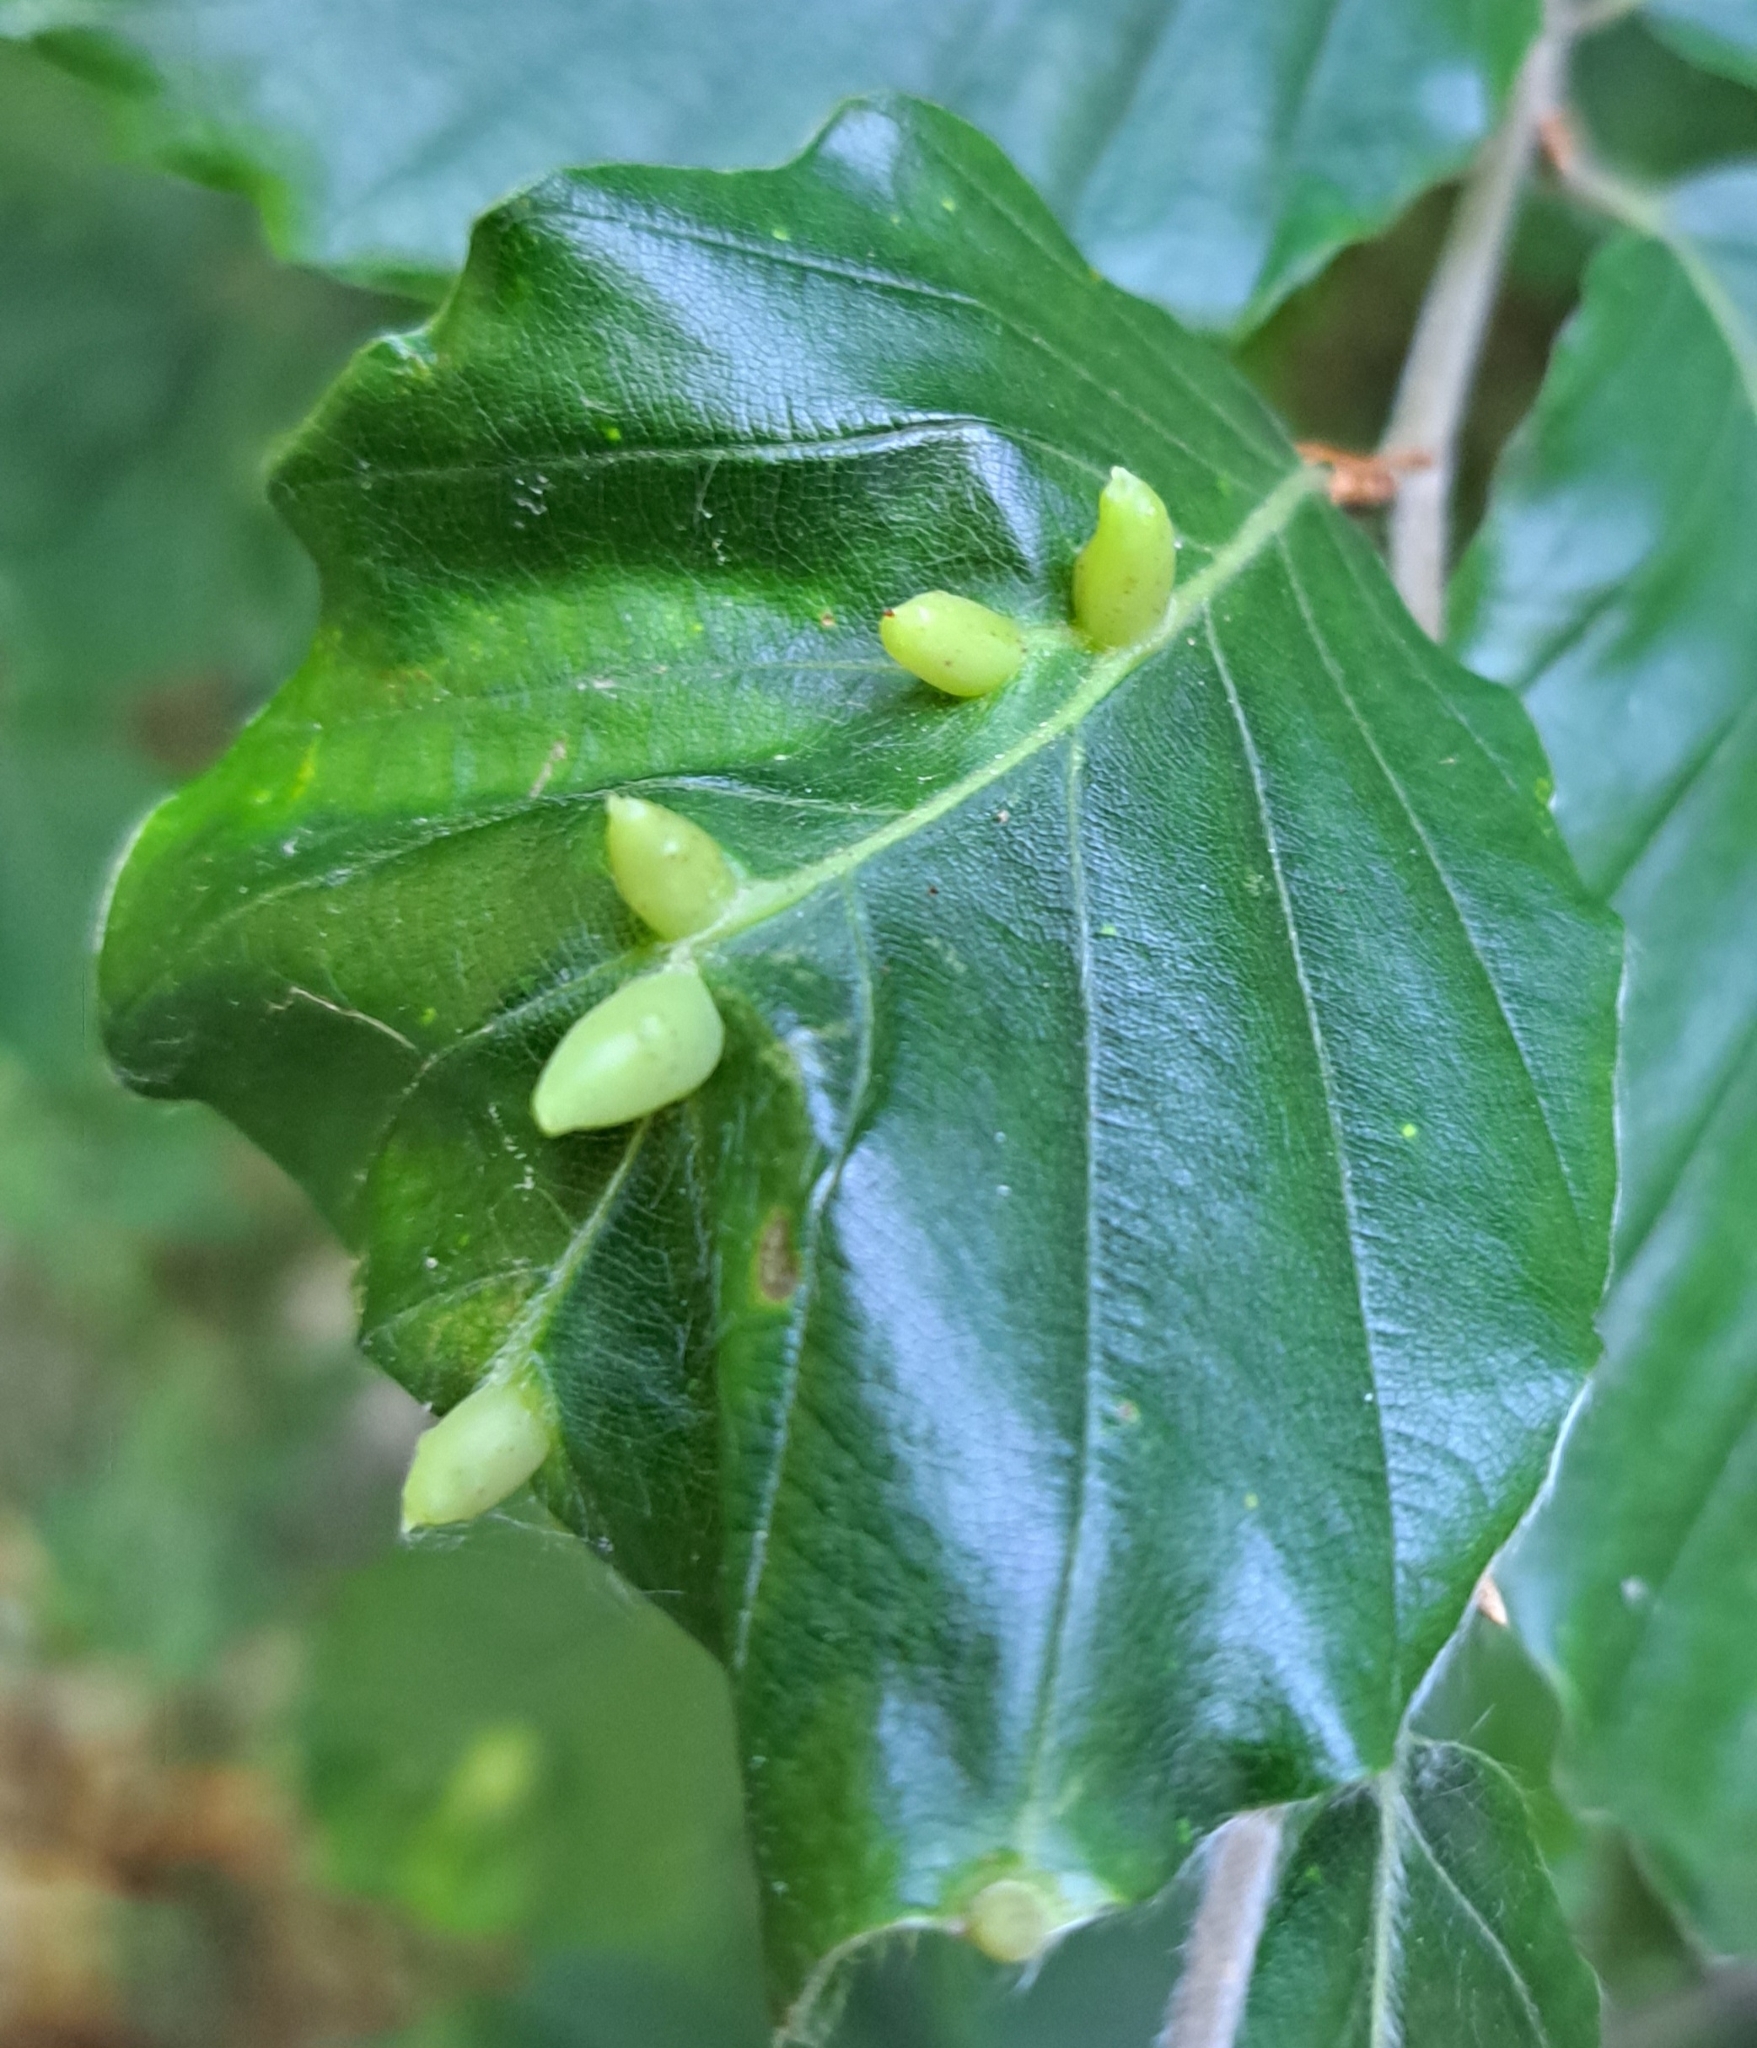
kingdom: Animalia
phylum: Arthropoda
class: Insecta
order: Diptera
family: Cecidomyiidae
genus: Mikiola
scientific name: Mikiola fagi
